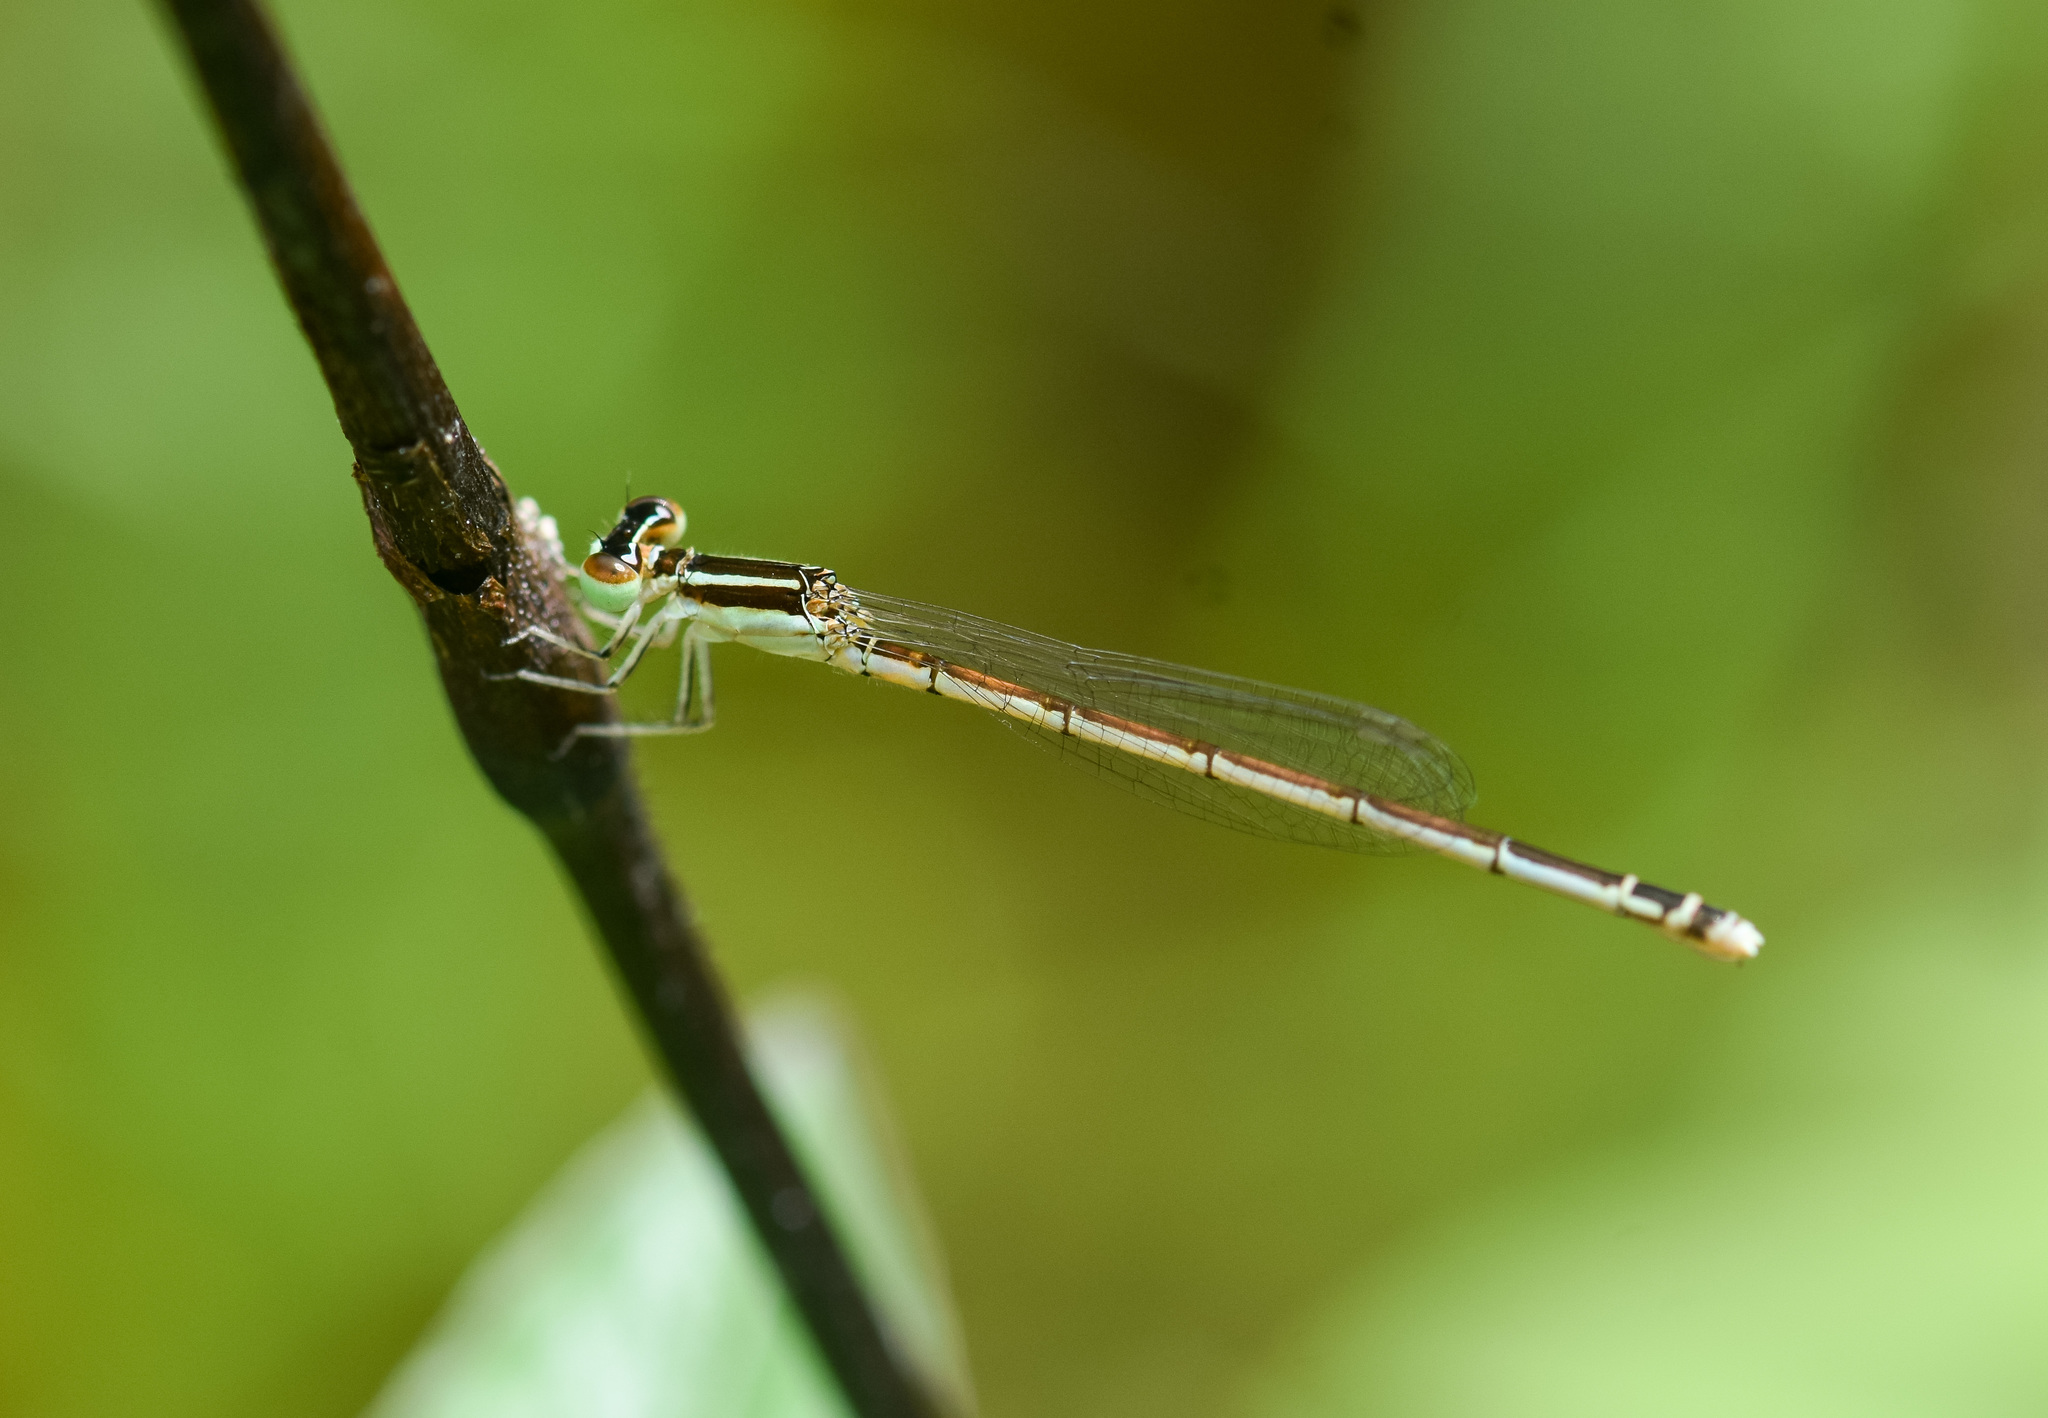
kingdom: Animalia
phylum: Arthropoda
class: Insecta
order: Odonata
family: Coenagrionidae
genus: Agriocnemis
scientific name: Agriocnemis lacteola
